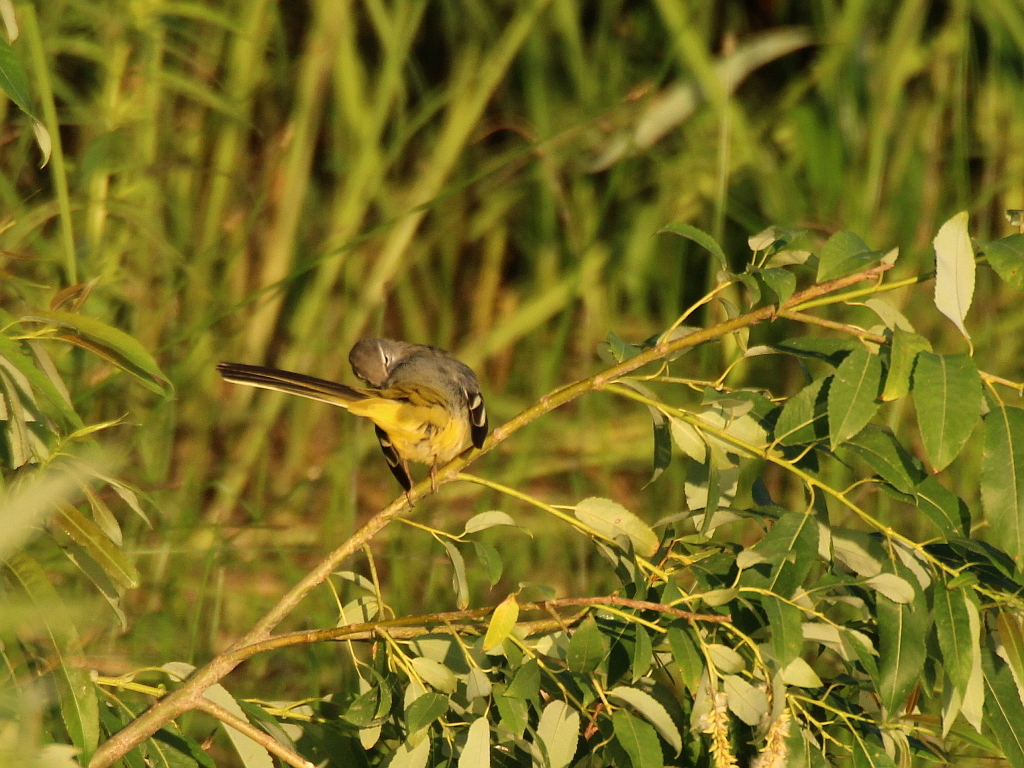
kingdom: Animalia
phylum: Chordata
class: Aves
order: Passeriformes
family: Motacillidae
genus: Motacilla
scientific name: Motacilla cinerea
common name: Grey wagtail
